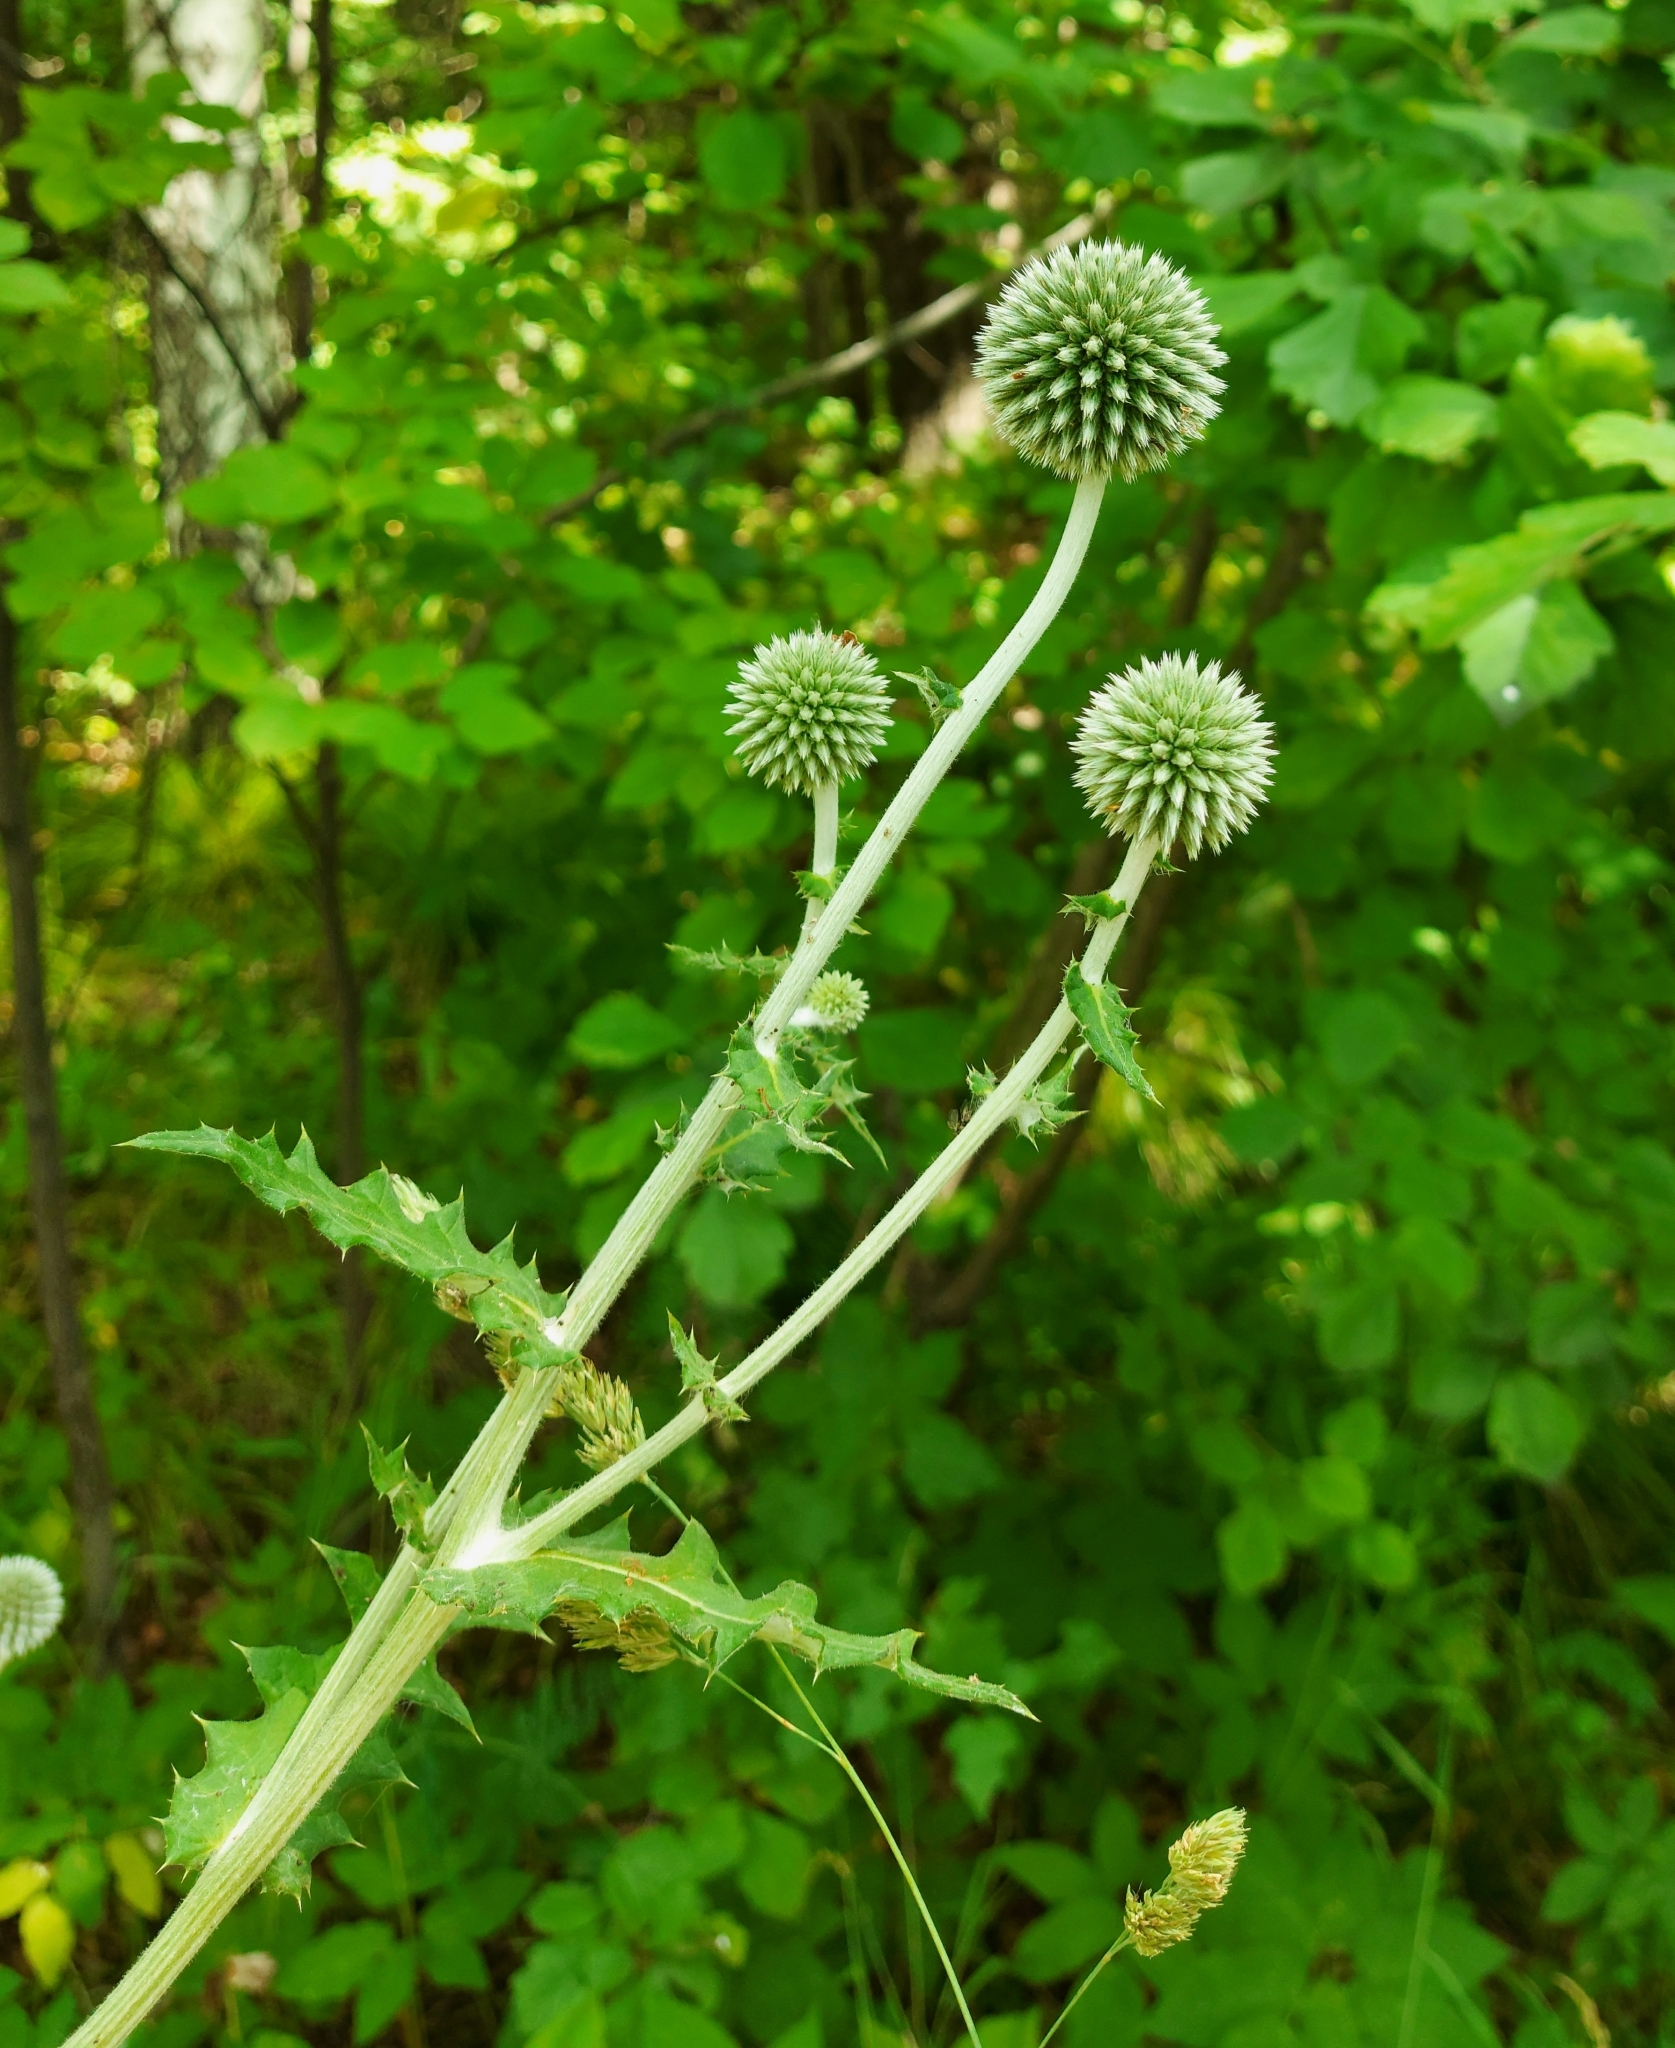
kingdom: Plantae
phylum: Tracheophyta
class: Magnoliopsida
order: Asterales
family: Asteraceae
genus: Echinops
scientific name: Echinops sphaerocephalus
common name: Glandular globe-thistle
